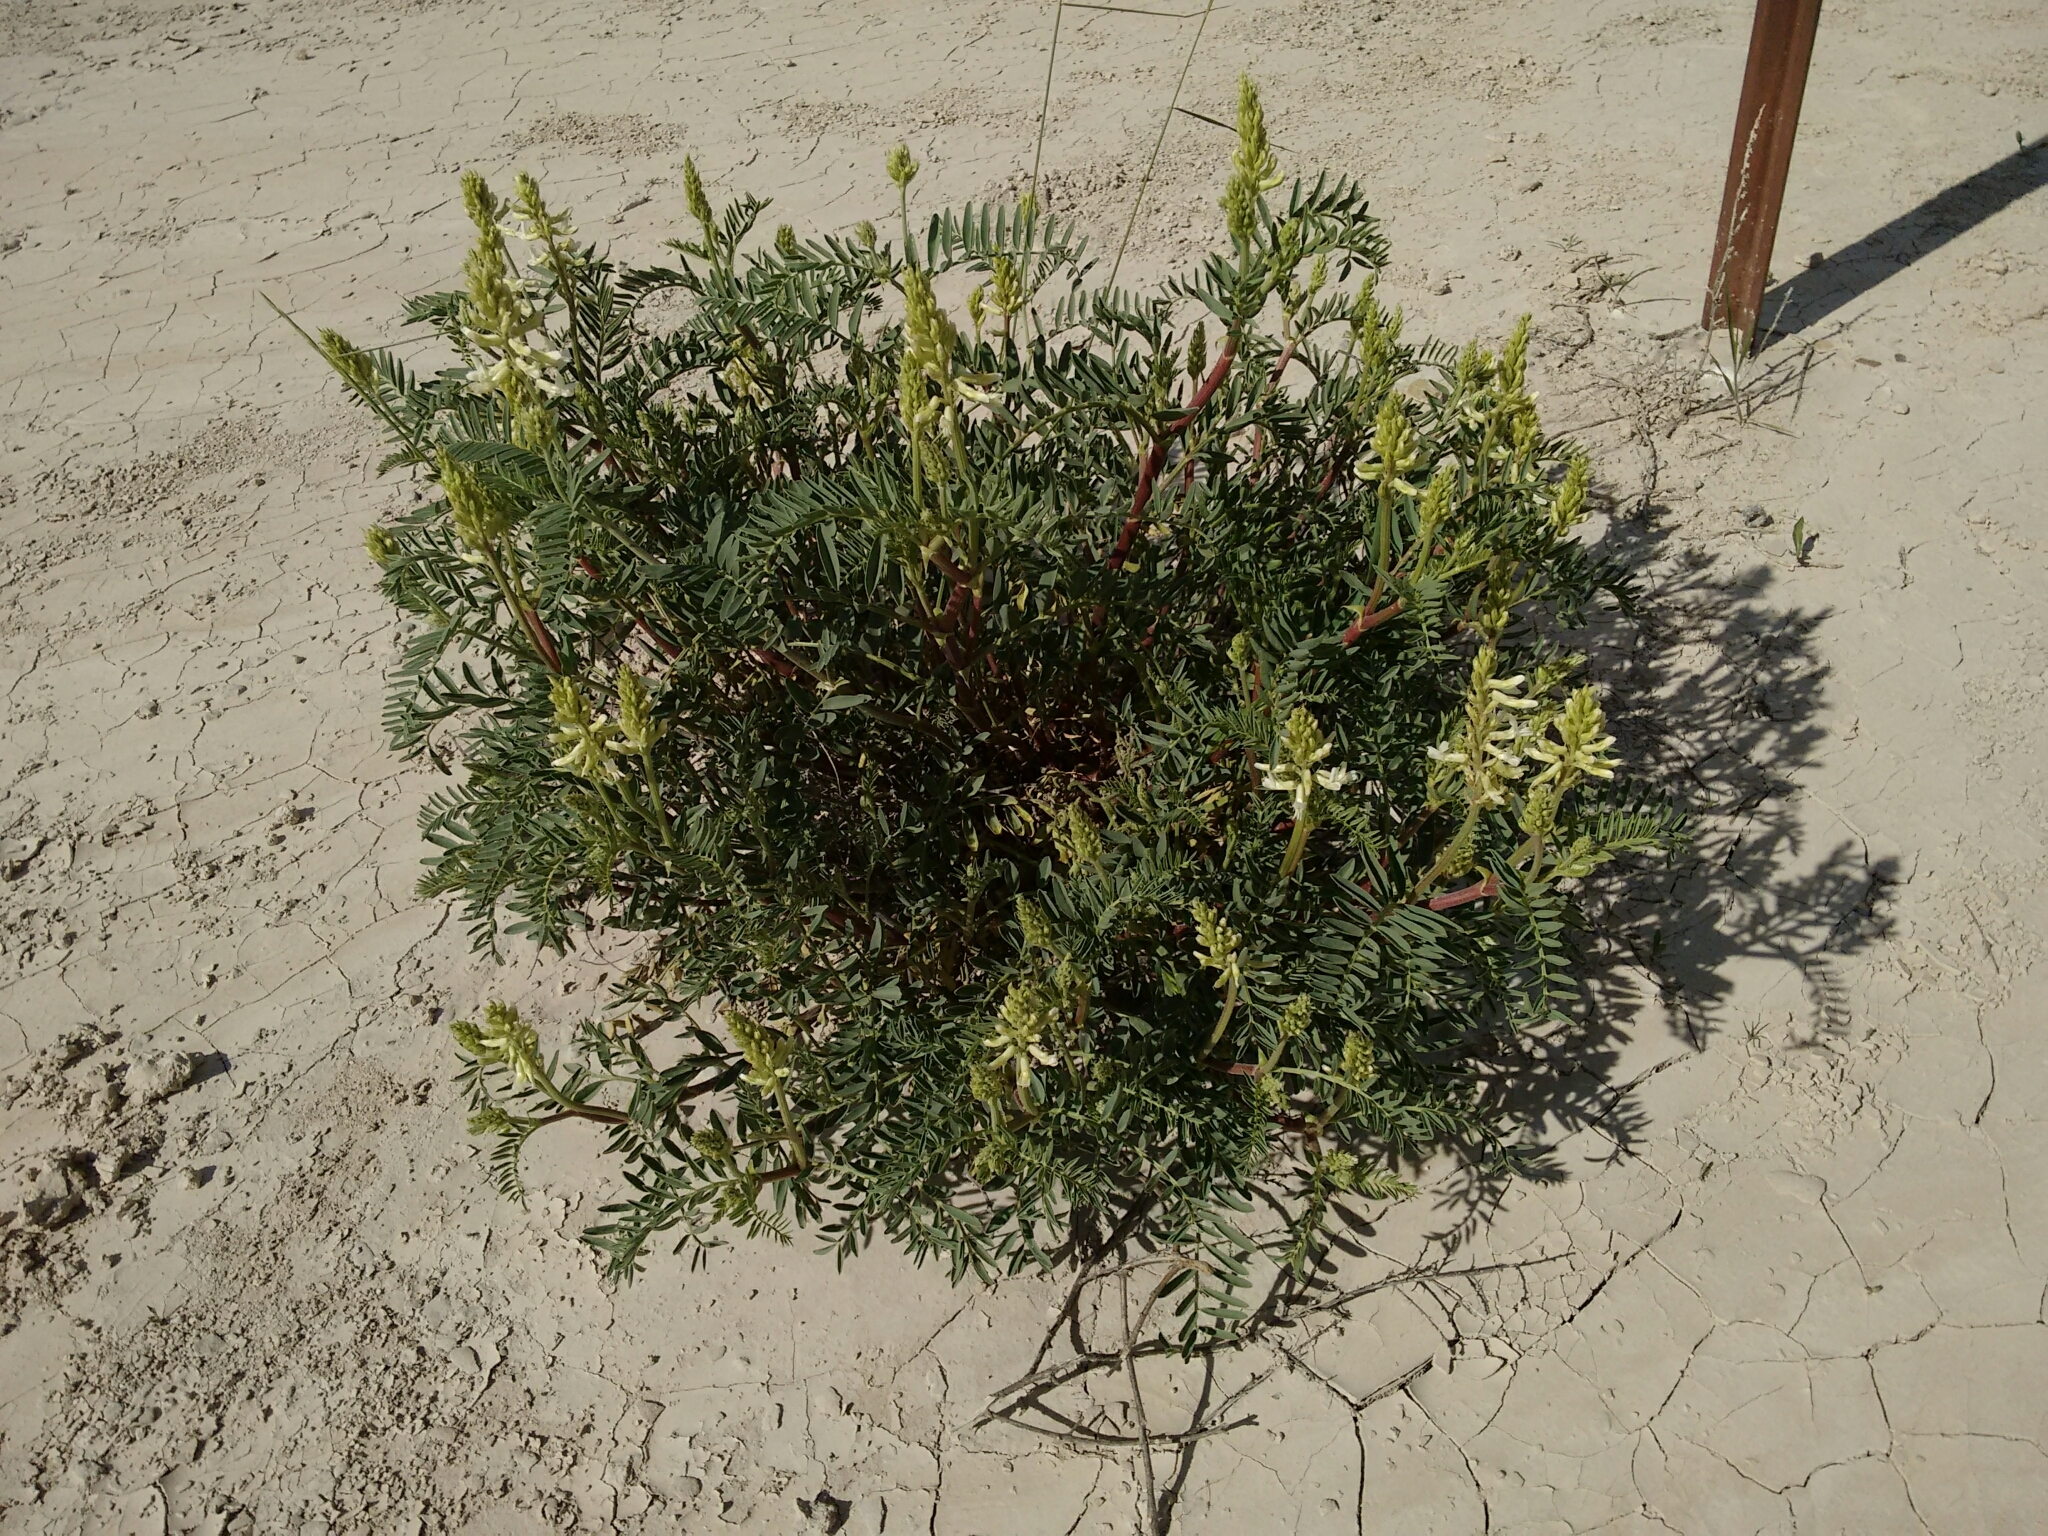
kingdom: Plantae
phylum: Tracheophyta
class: Magnoliopsida
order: Fabales
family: Fabaceae
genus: Astragalus
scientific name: Astragalus racemosus
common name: Alkali milk-vetch
